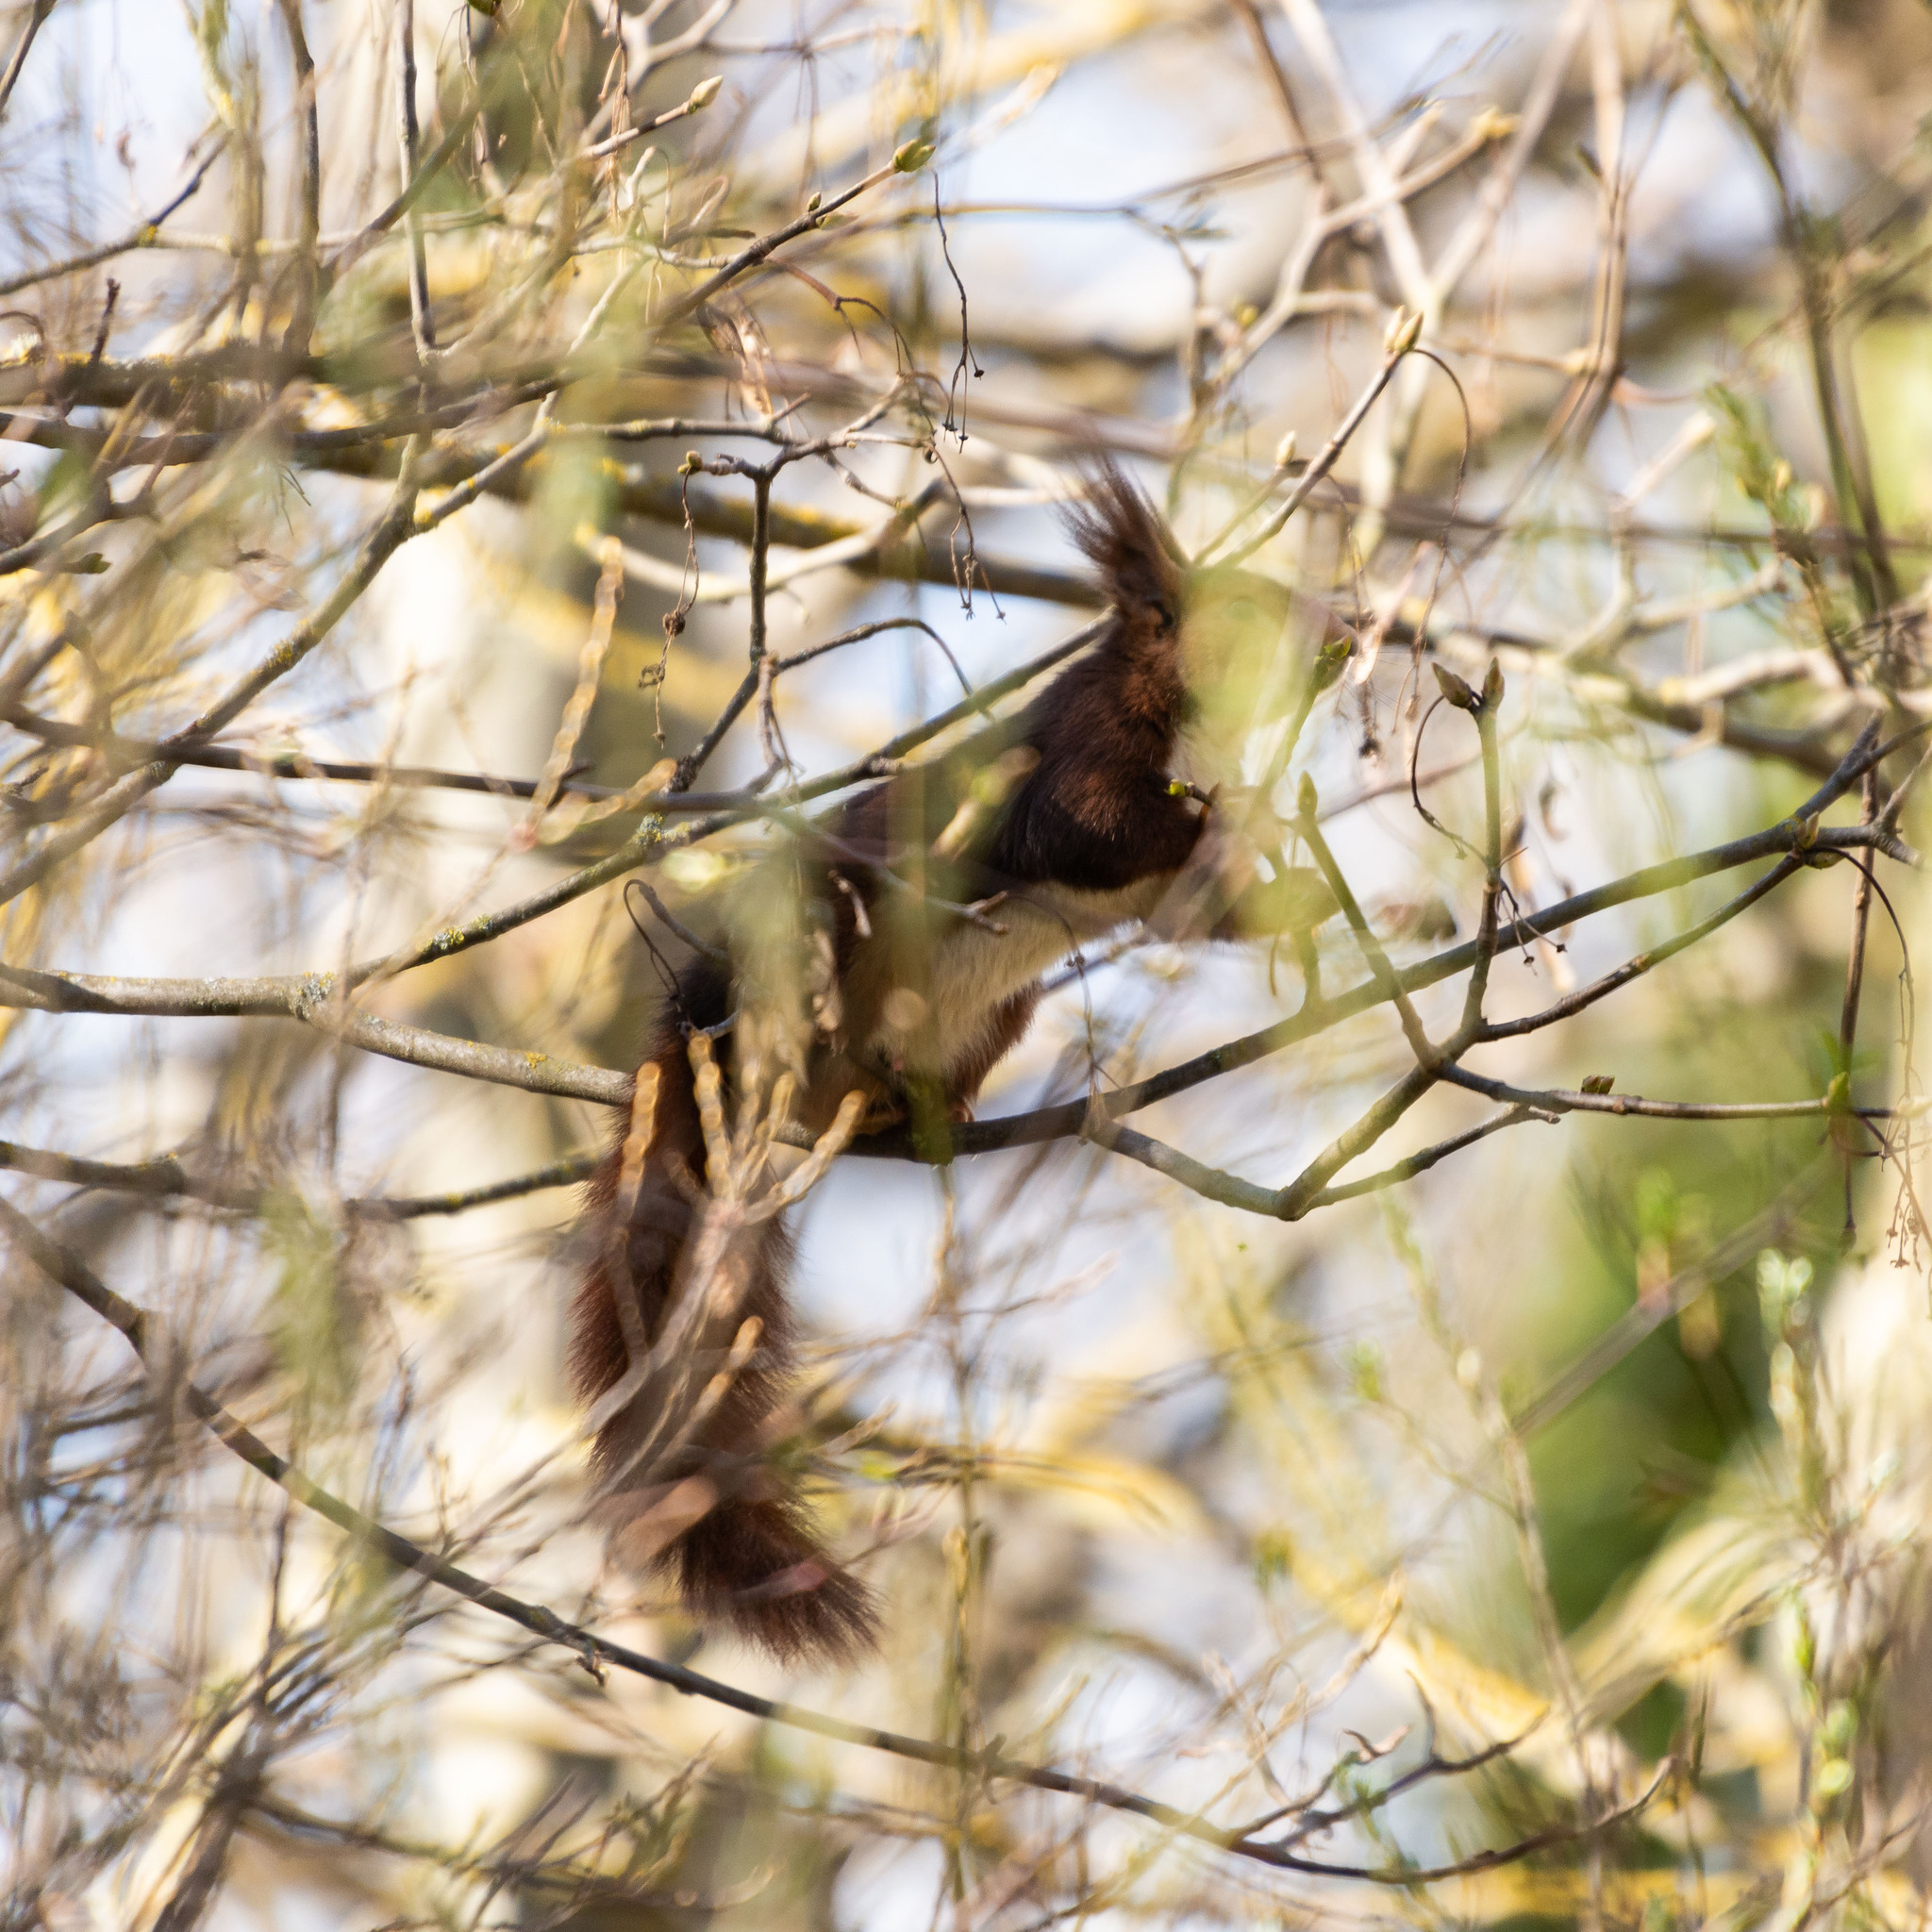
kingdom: Animalia
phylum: Chordata
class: Mammalia
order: Rodentia
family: Sciuridae
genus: Sciurus
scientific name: Sciurus vulgaris
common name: Eurasian red squirrel
